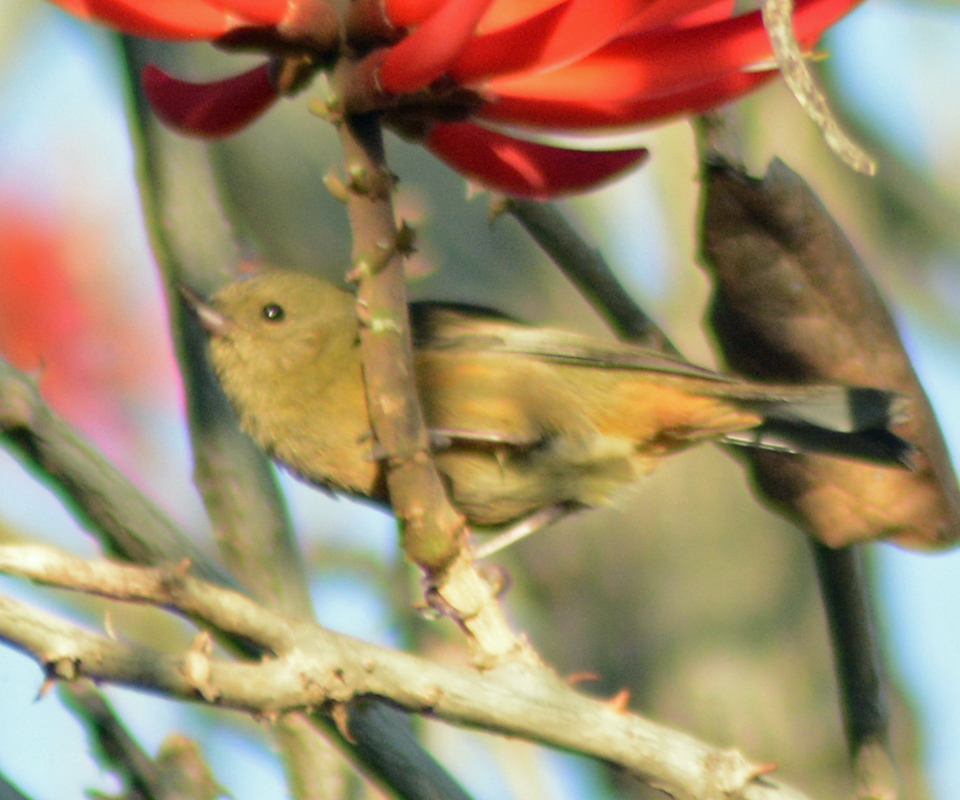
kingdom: Animalia
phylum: Chordata
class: Aves
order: Passeriformes
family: Thraupidae
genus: Diglossa
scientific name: Diglossa baritula
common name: Cinnamon-bellied flowerpiercer
